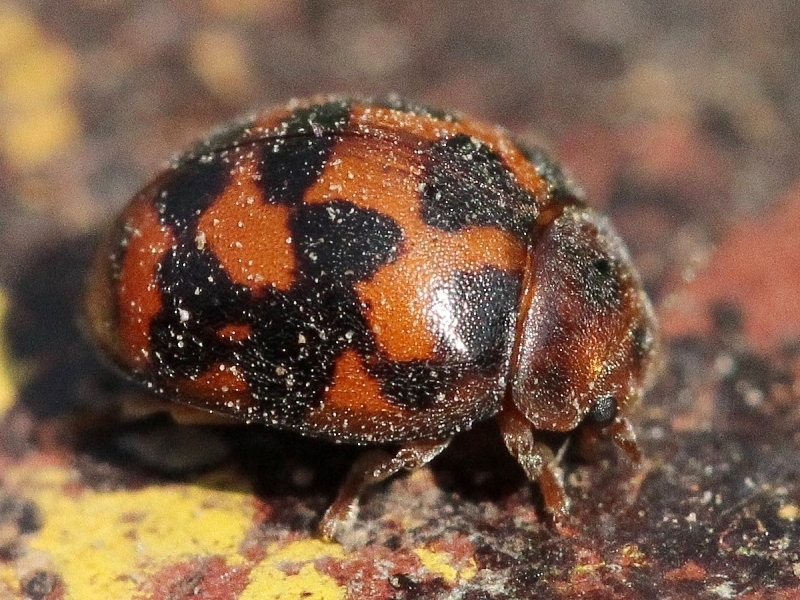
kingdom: Animalia
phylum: Arthropoda
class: Insecta
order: Coleoptera
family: Coccinellidae
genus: Subcoccinella
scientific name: Subcoccinella vigintiquatuorpunctata
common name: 24-spot ladybird
